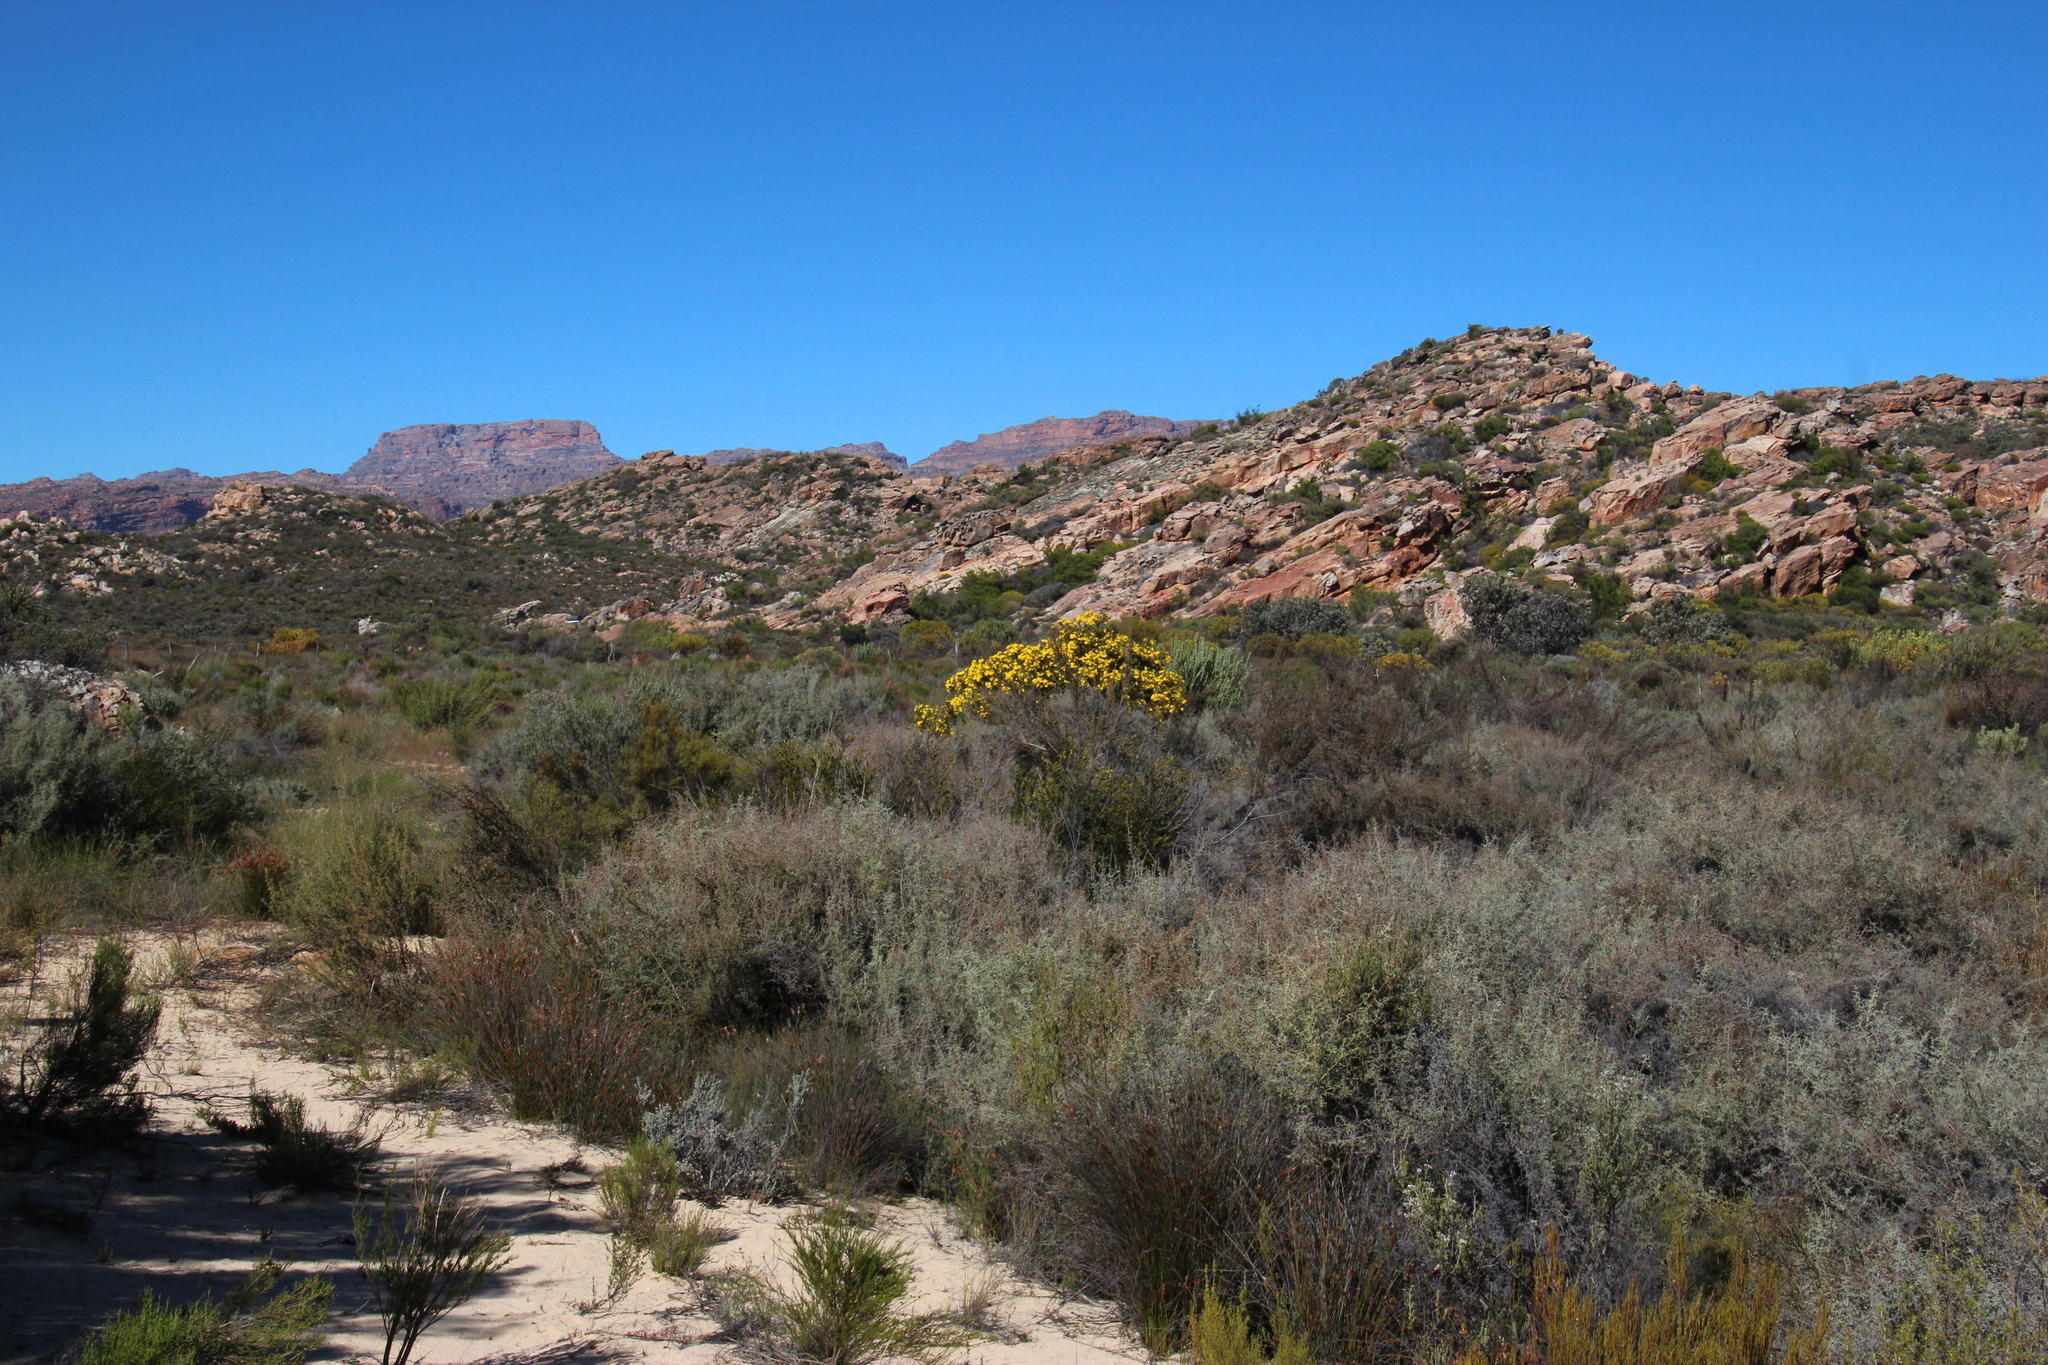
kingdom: Plantae
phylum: Tracheophyta
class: Magnoliopsida
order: Asterales
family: Asteraceae
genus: Seriphium
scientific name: Seriphium plumosum
